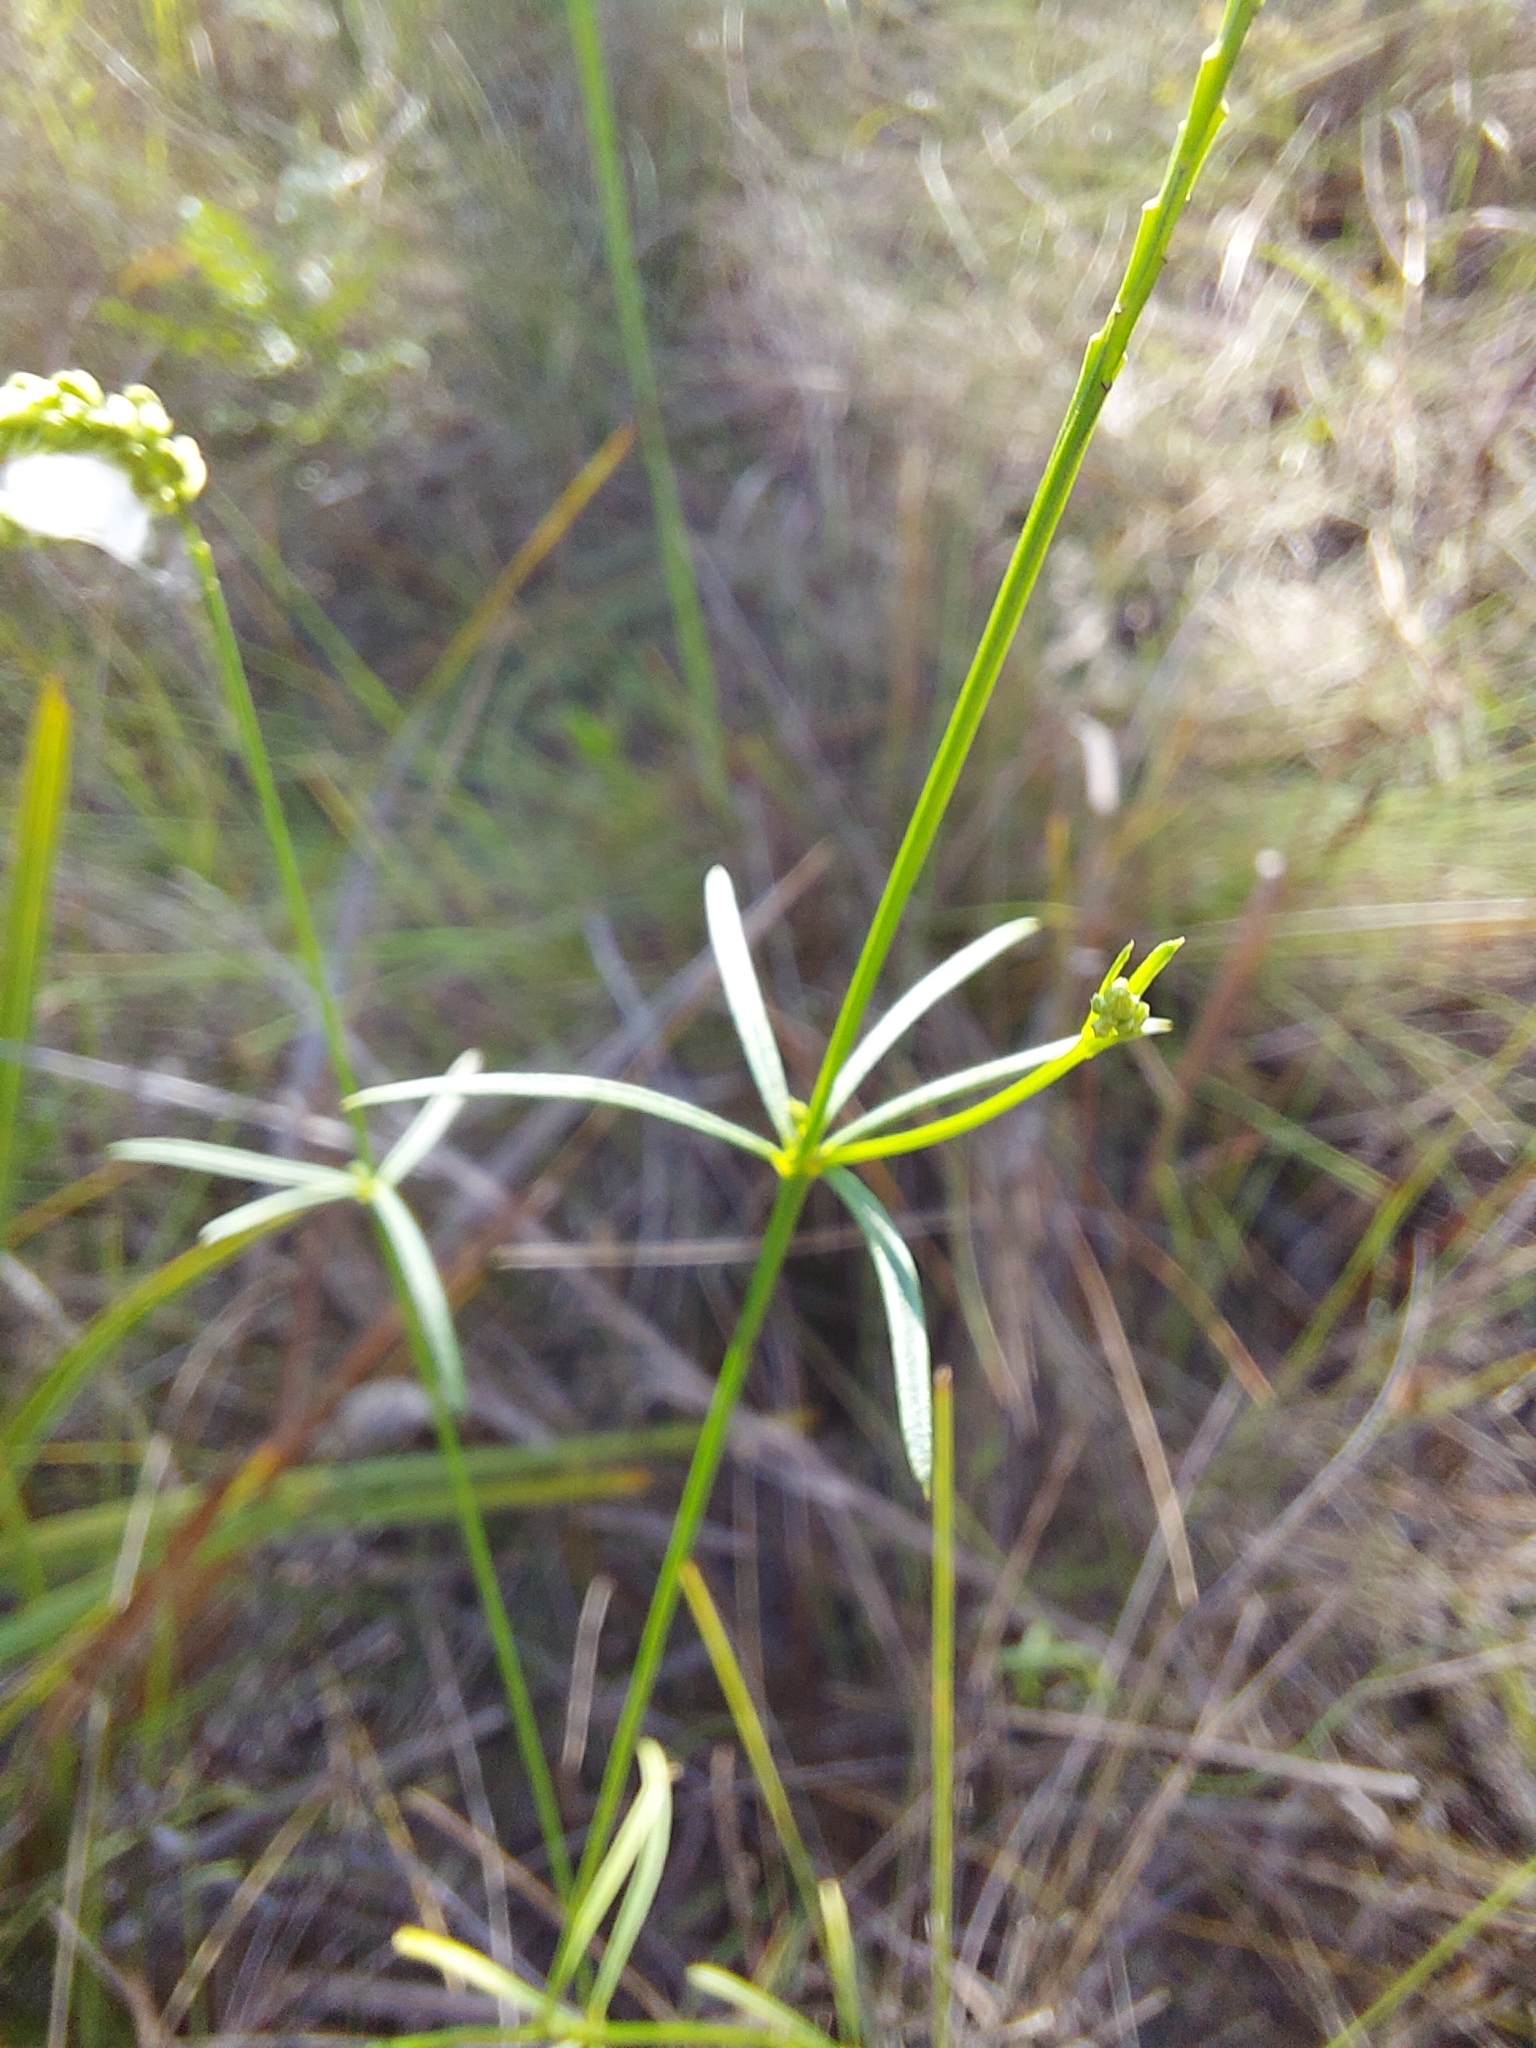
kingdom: Plantae
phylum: Tracheophyta
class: Magnoliopsida
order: Fabales
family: Polygalaceae
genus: Polygala
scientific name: Polygala leptostachys
